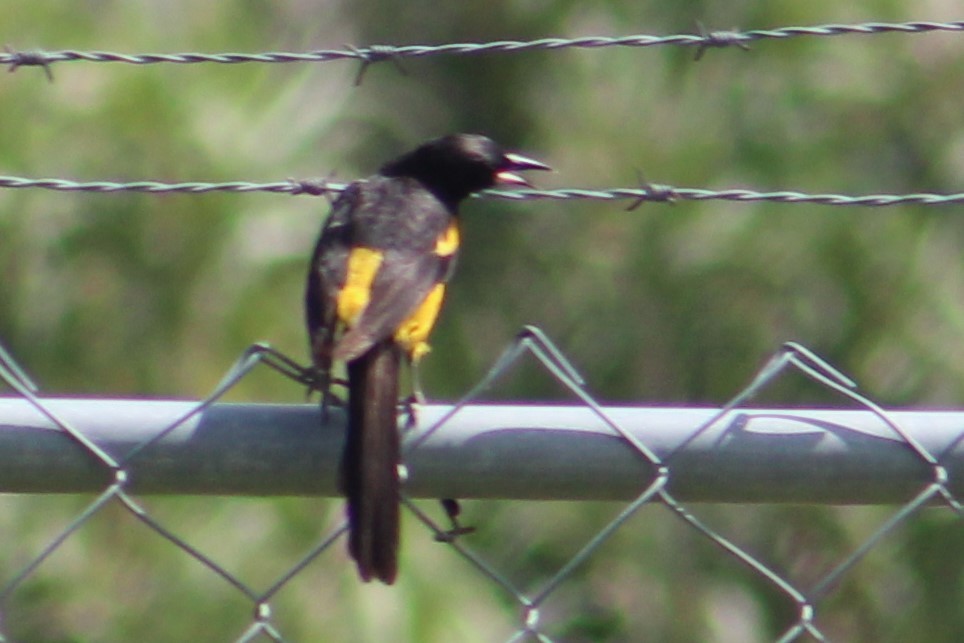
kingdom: Animalia
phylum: Chordata
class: Aves
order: Passeriformes
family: Icteridae
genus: Icterus
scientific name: Icterus wagleri
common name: Black-vented oriole
